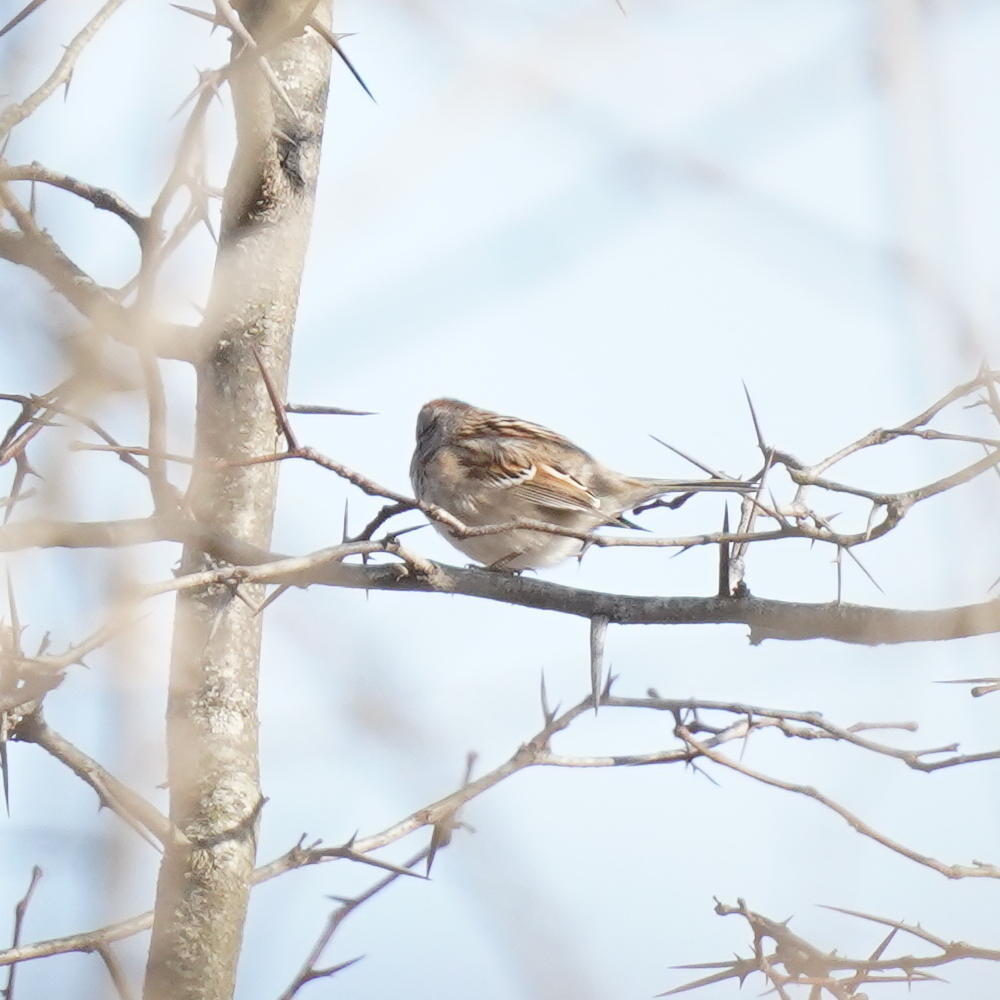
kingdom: Animalia
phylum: Chordata
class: Aves
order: Passeriformes
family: Passerellidae
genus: Spizelloides
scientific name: Spizelloides arborea
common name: American tree sparrow
